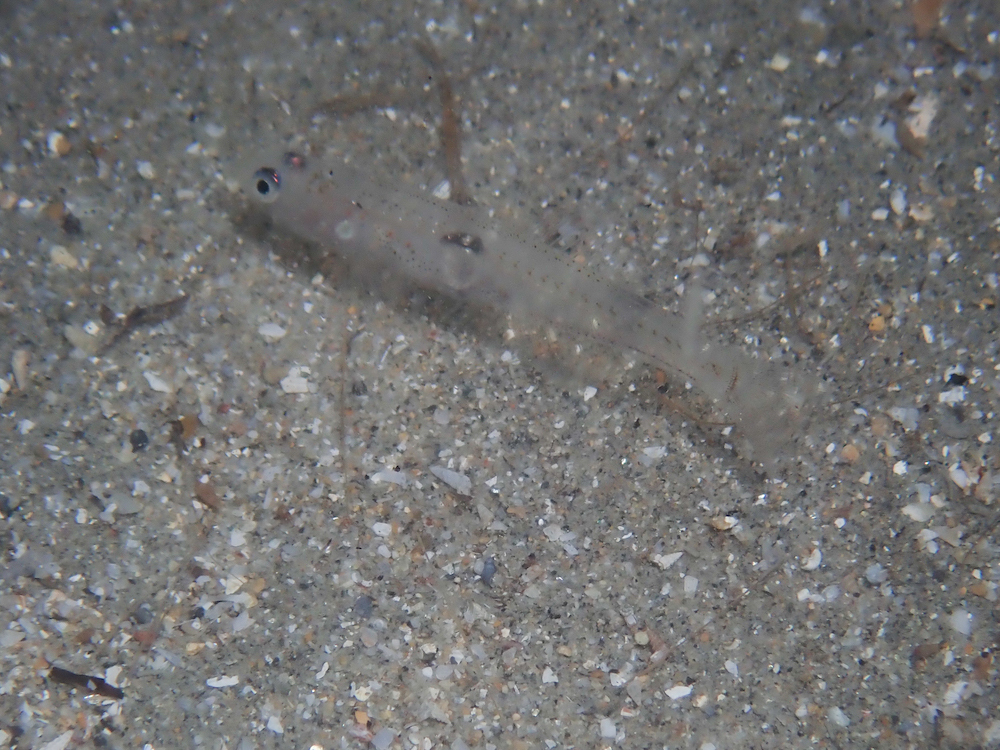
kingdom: Animalia
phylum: Chordata
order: Perciformes
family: Gobiidae
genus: Aphia
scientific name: Aphia minuta
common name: Transparent goby
